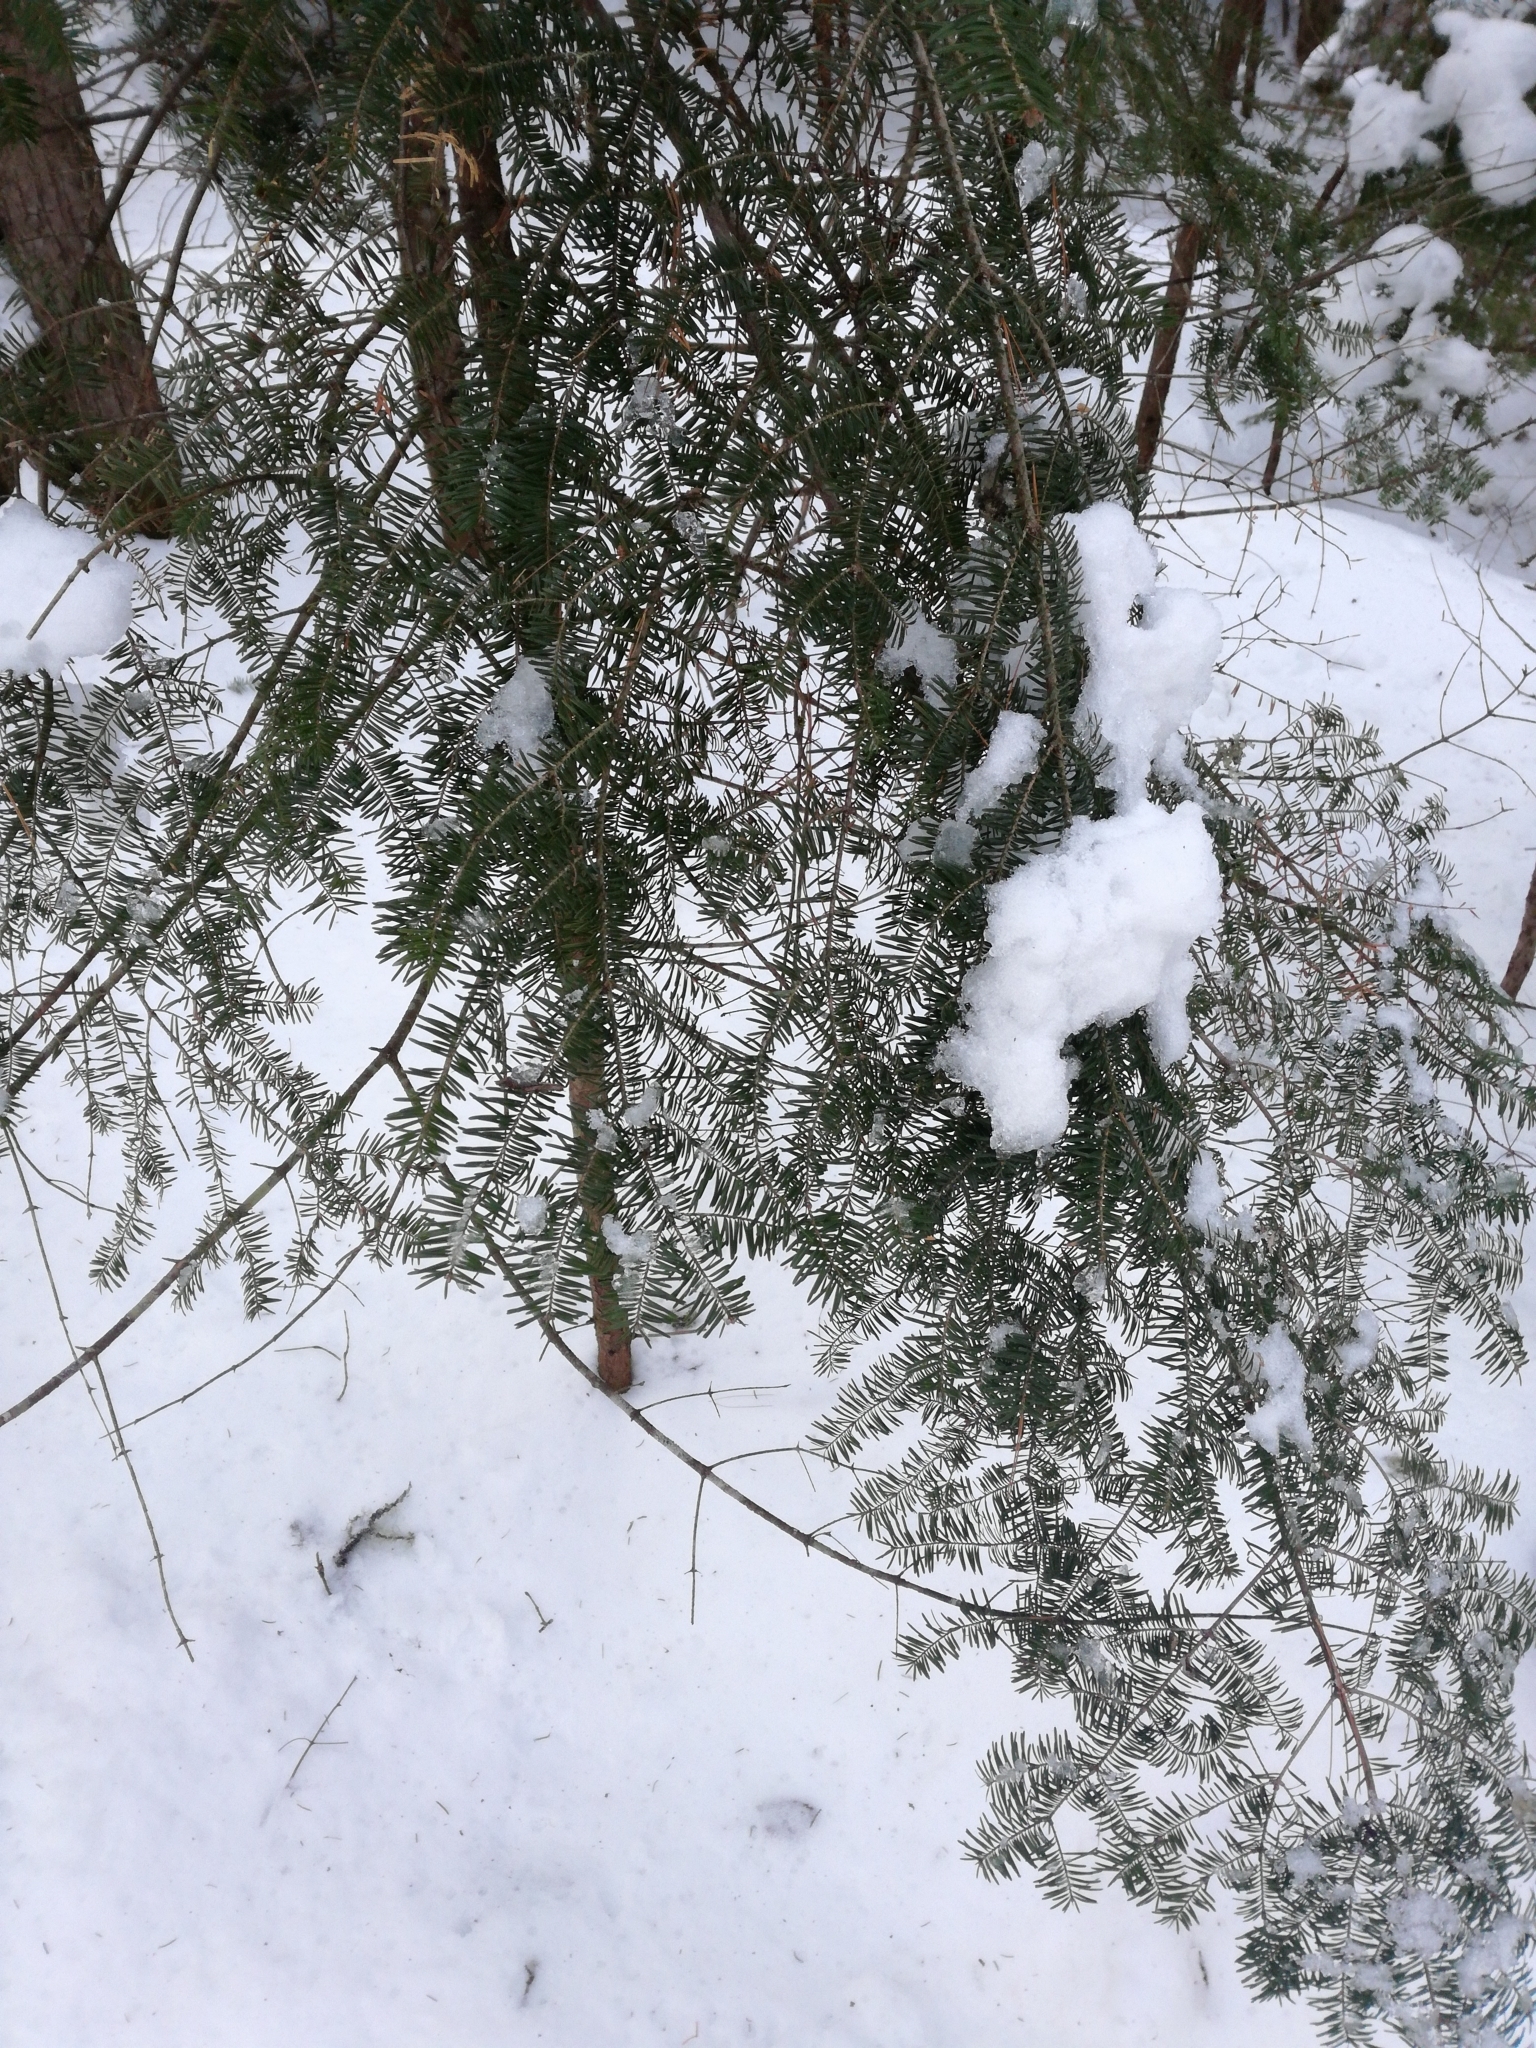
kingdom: Plantae
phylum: Tracheophyta
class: Pinopsida
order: Pinales
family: Pinaceae
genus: Abies
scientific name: Abies balsamea
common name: Balsam fir
